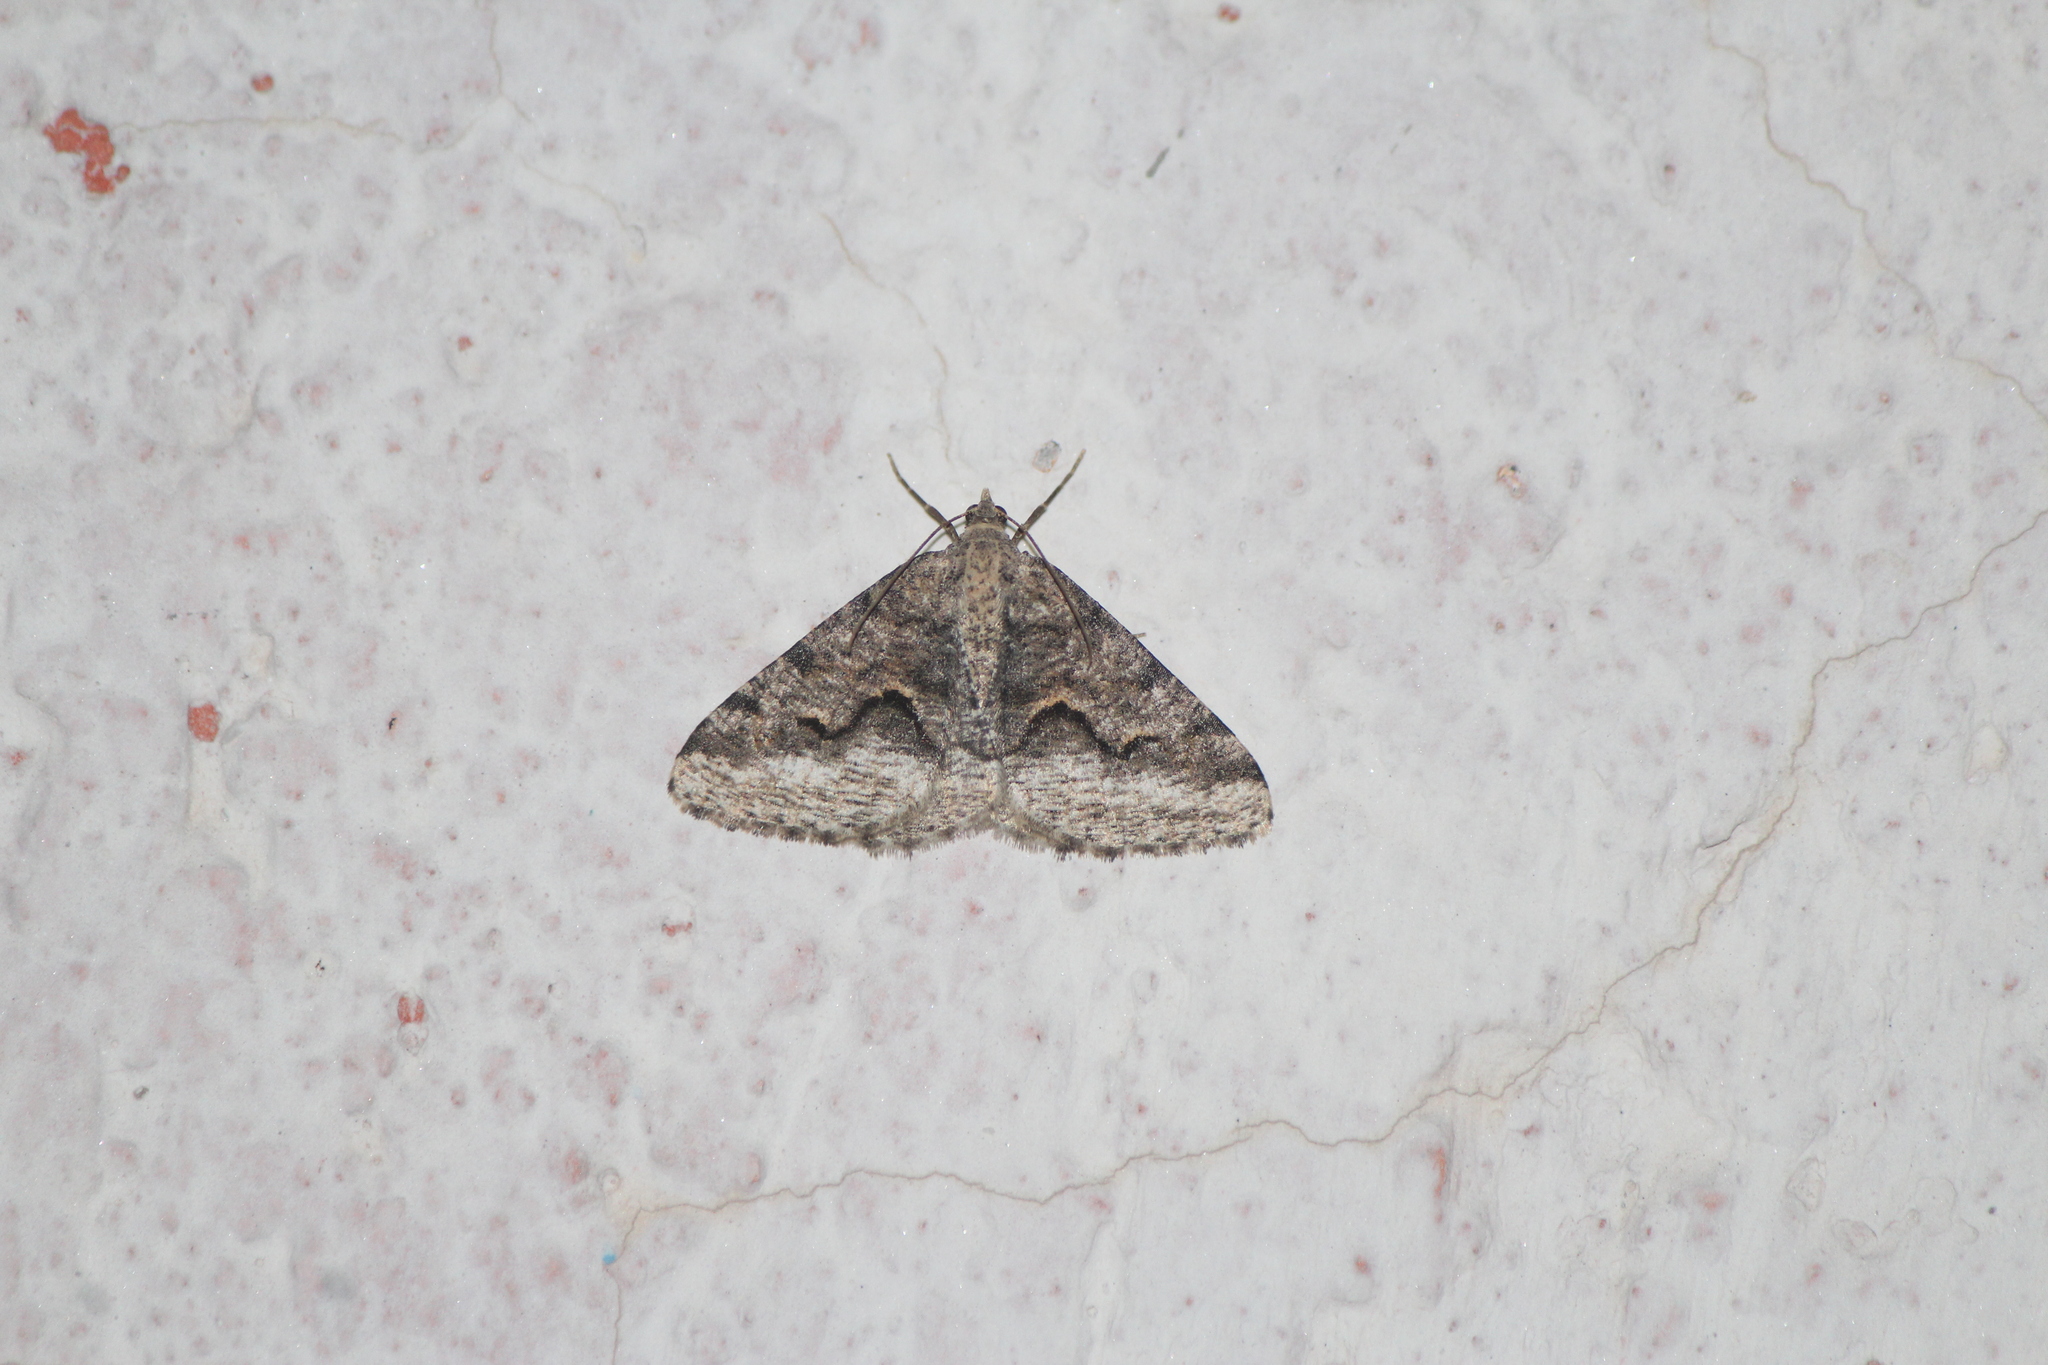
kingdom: Animalia
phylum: Arthropoda
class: Insecta
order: Lepidoptera
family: Geometridae
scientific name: Geometridae
